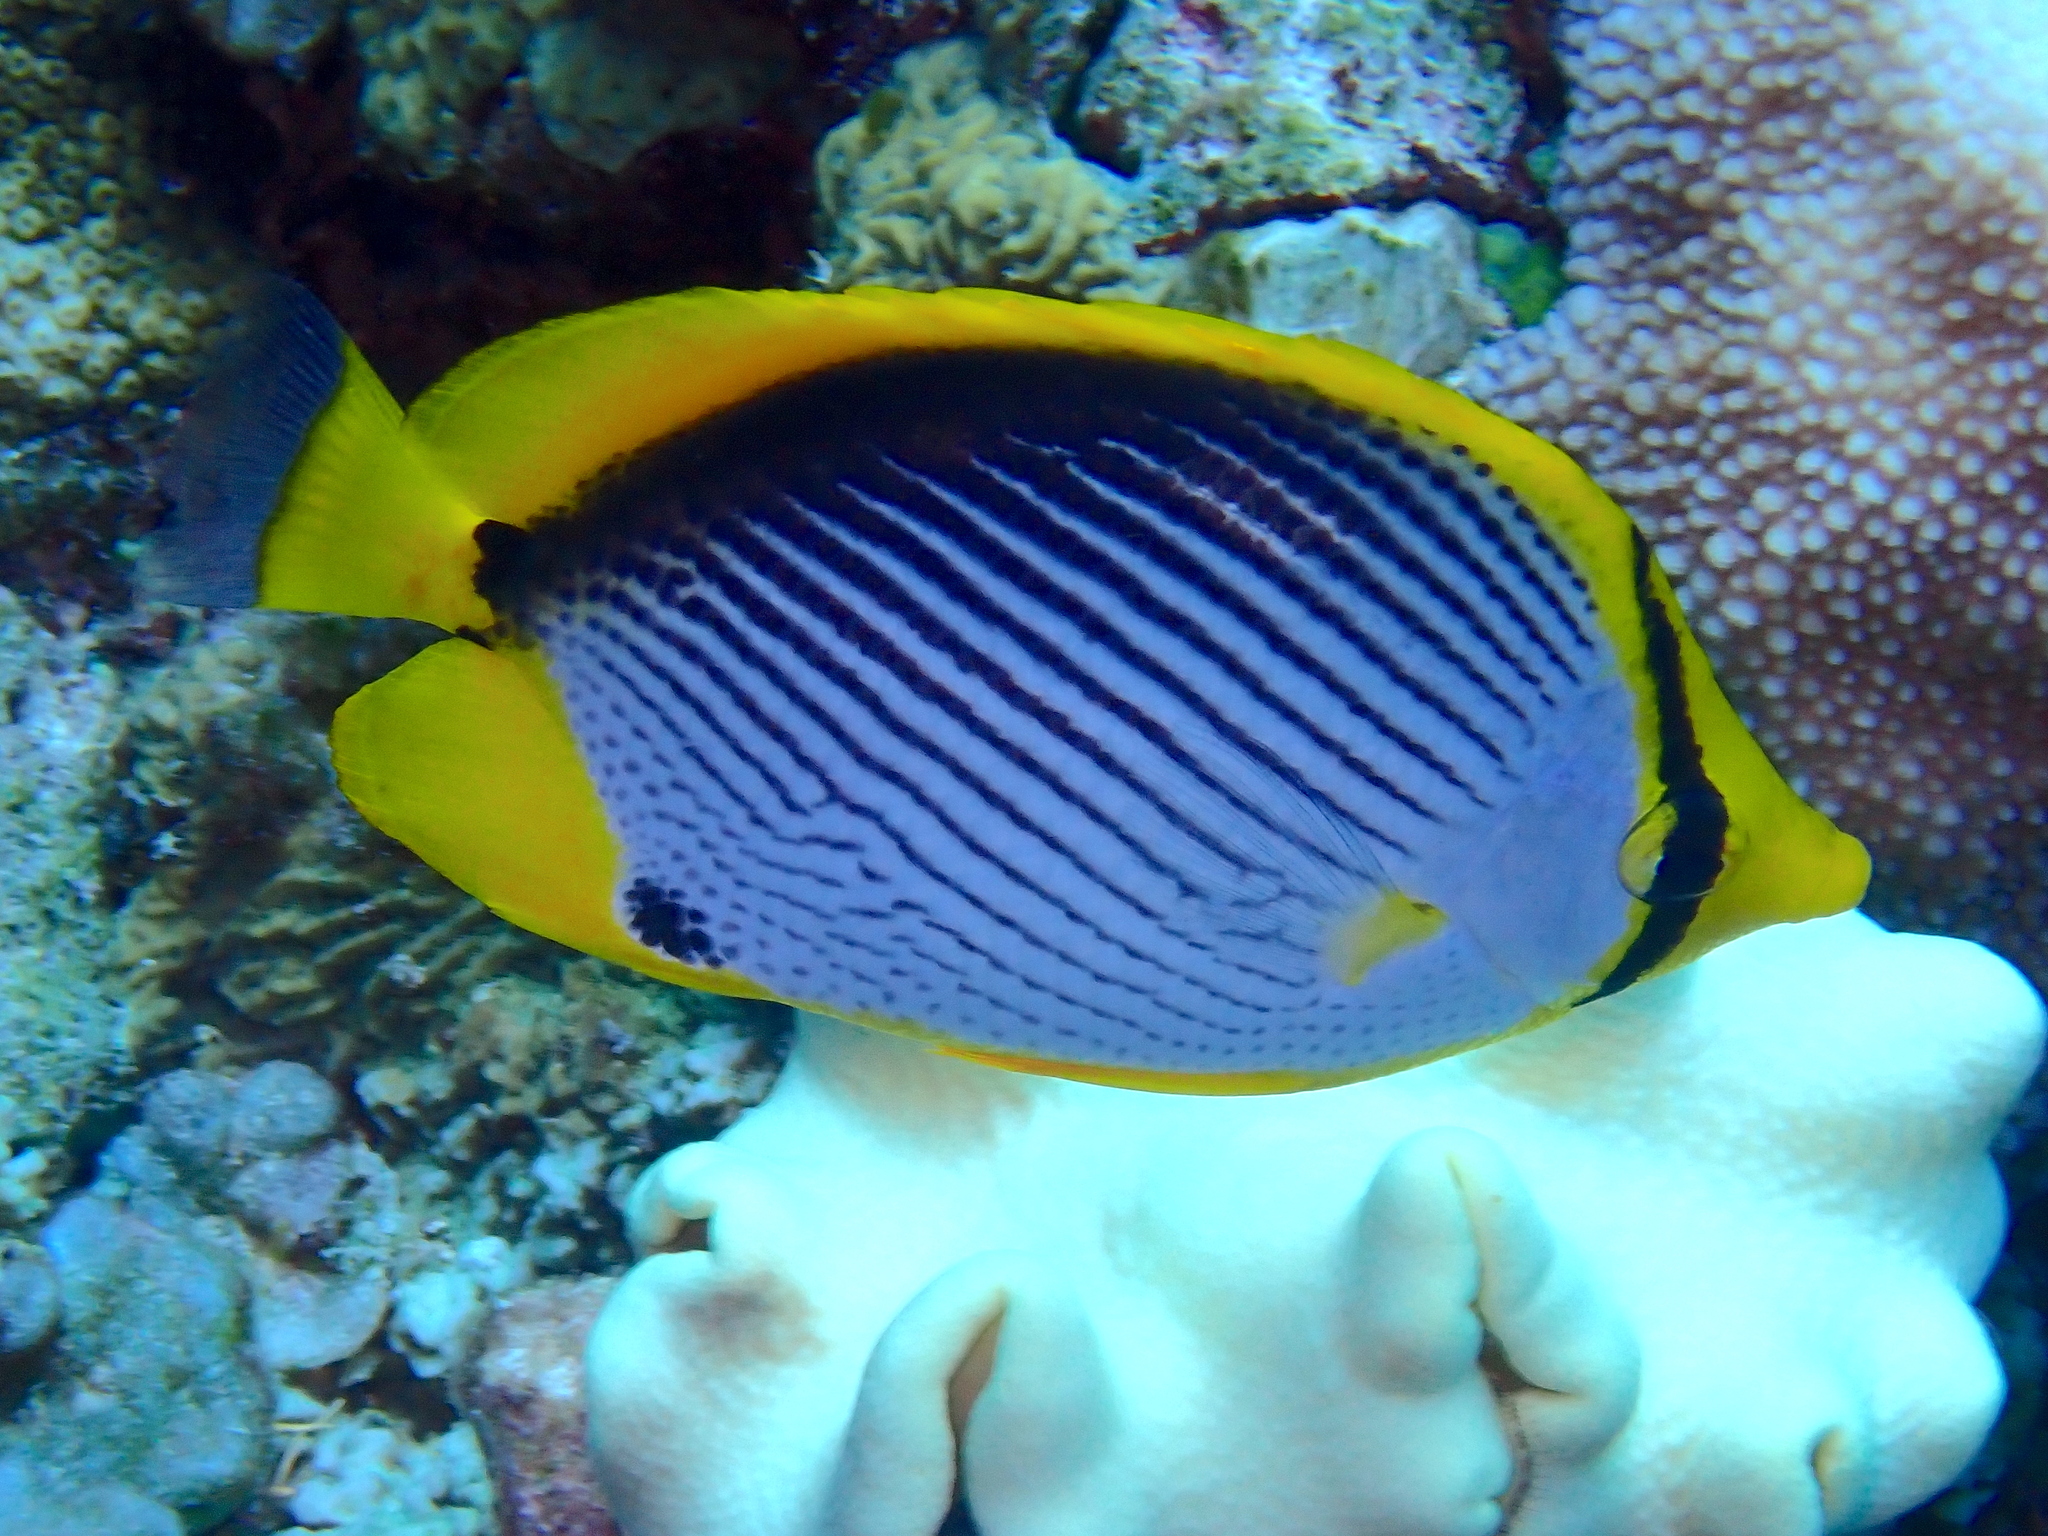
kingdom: Animalia
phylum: Chordata
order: Perciformes
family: Chaetodontidae
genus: Chaetodon
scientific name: Chaetodon melannotus
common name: Blackback butterflyfish
